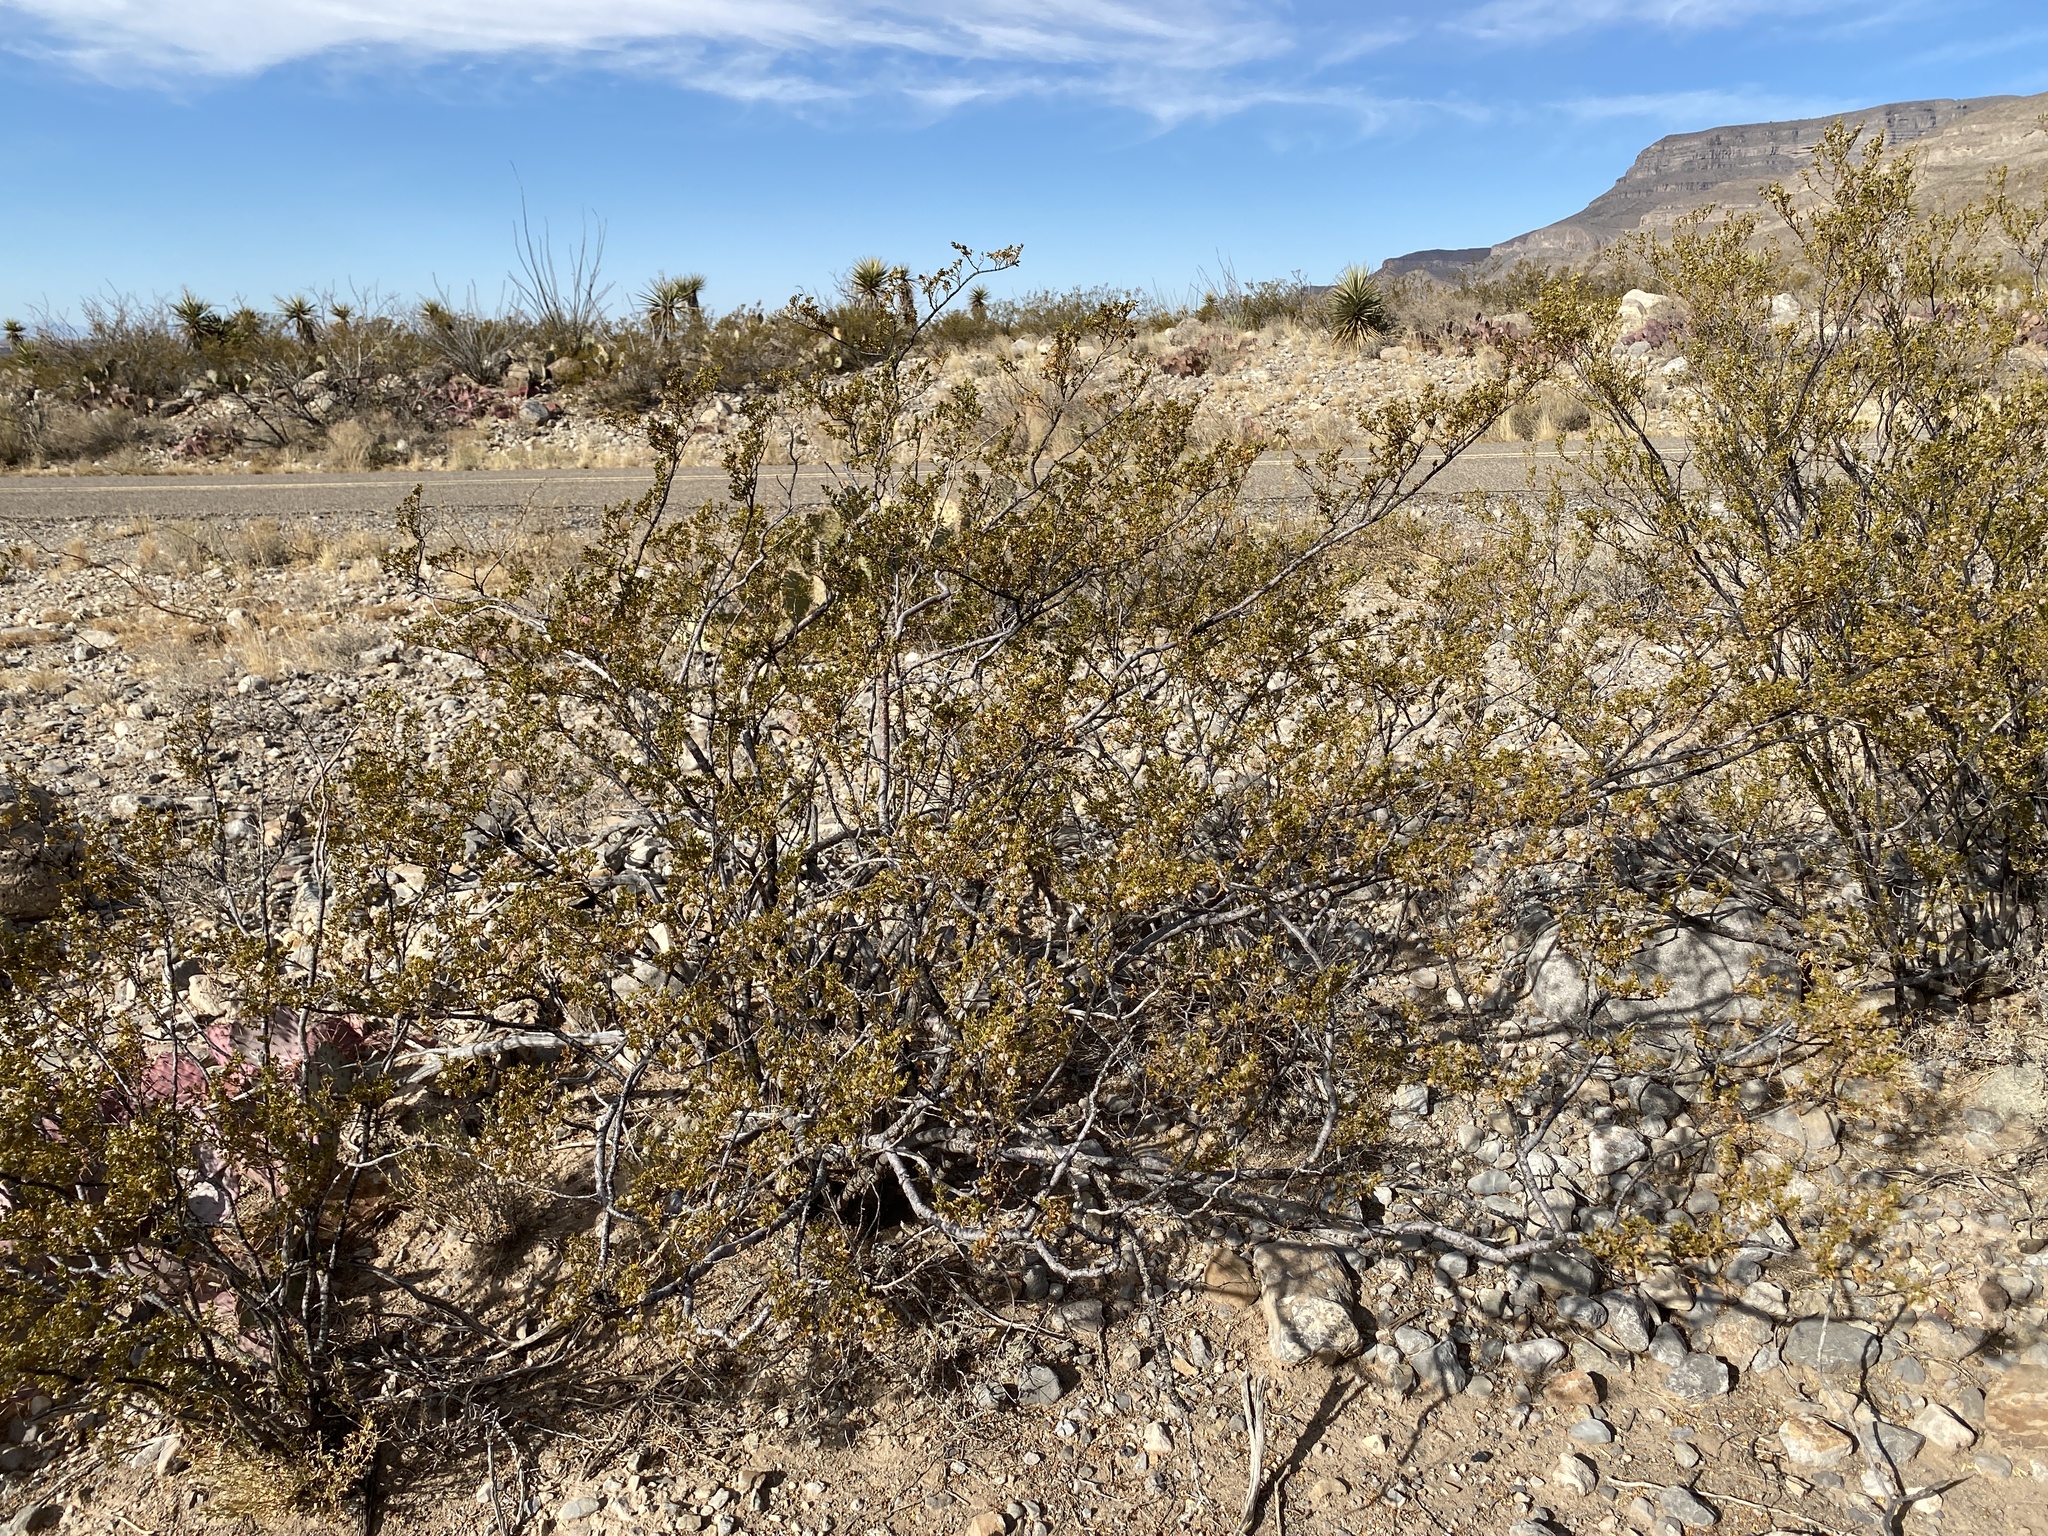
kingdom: Plantae
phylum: Tracheophyta
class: Magnoliopsida
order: Zygophyllales
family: Zygophyllaceae
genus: Larrea
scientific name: Larrea tridentata
